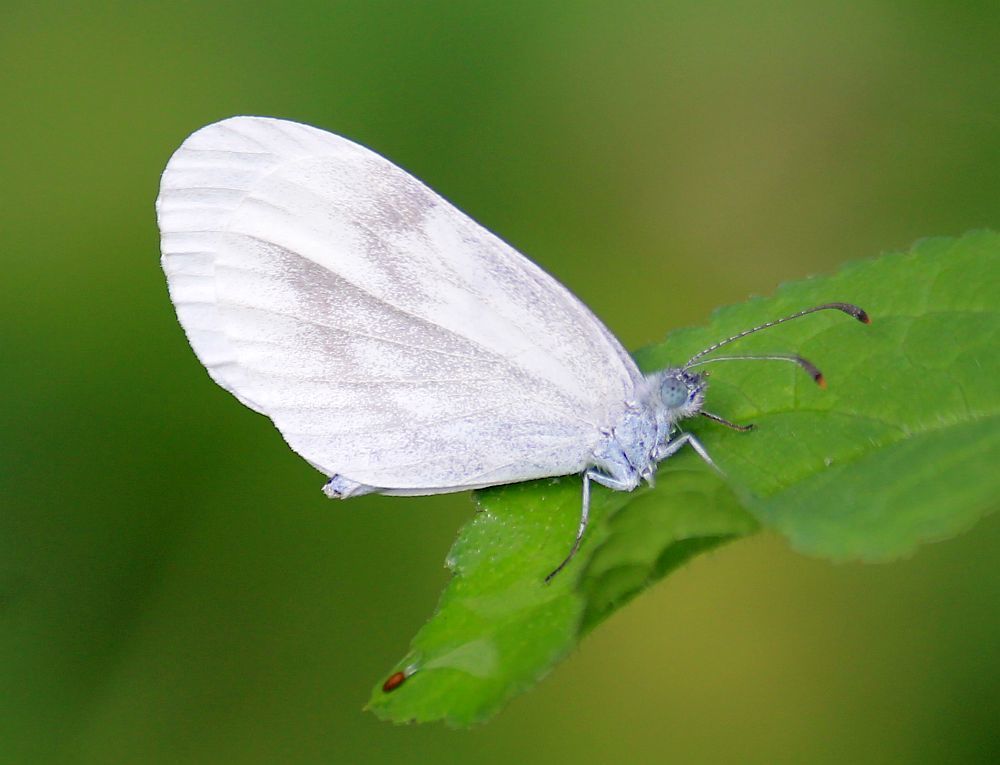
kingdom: Animalia
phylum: Arthropoda
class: Insecta
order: Lepidoptera
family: Pieridae
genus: Leptidea
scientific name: Leptidea sinapis
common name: Wood white
